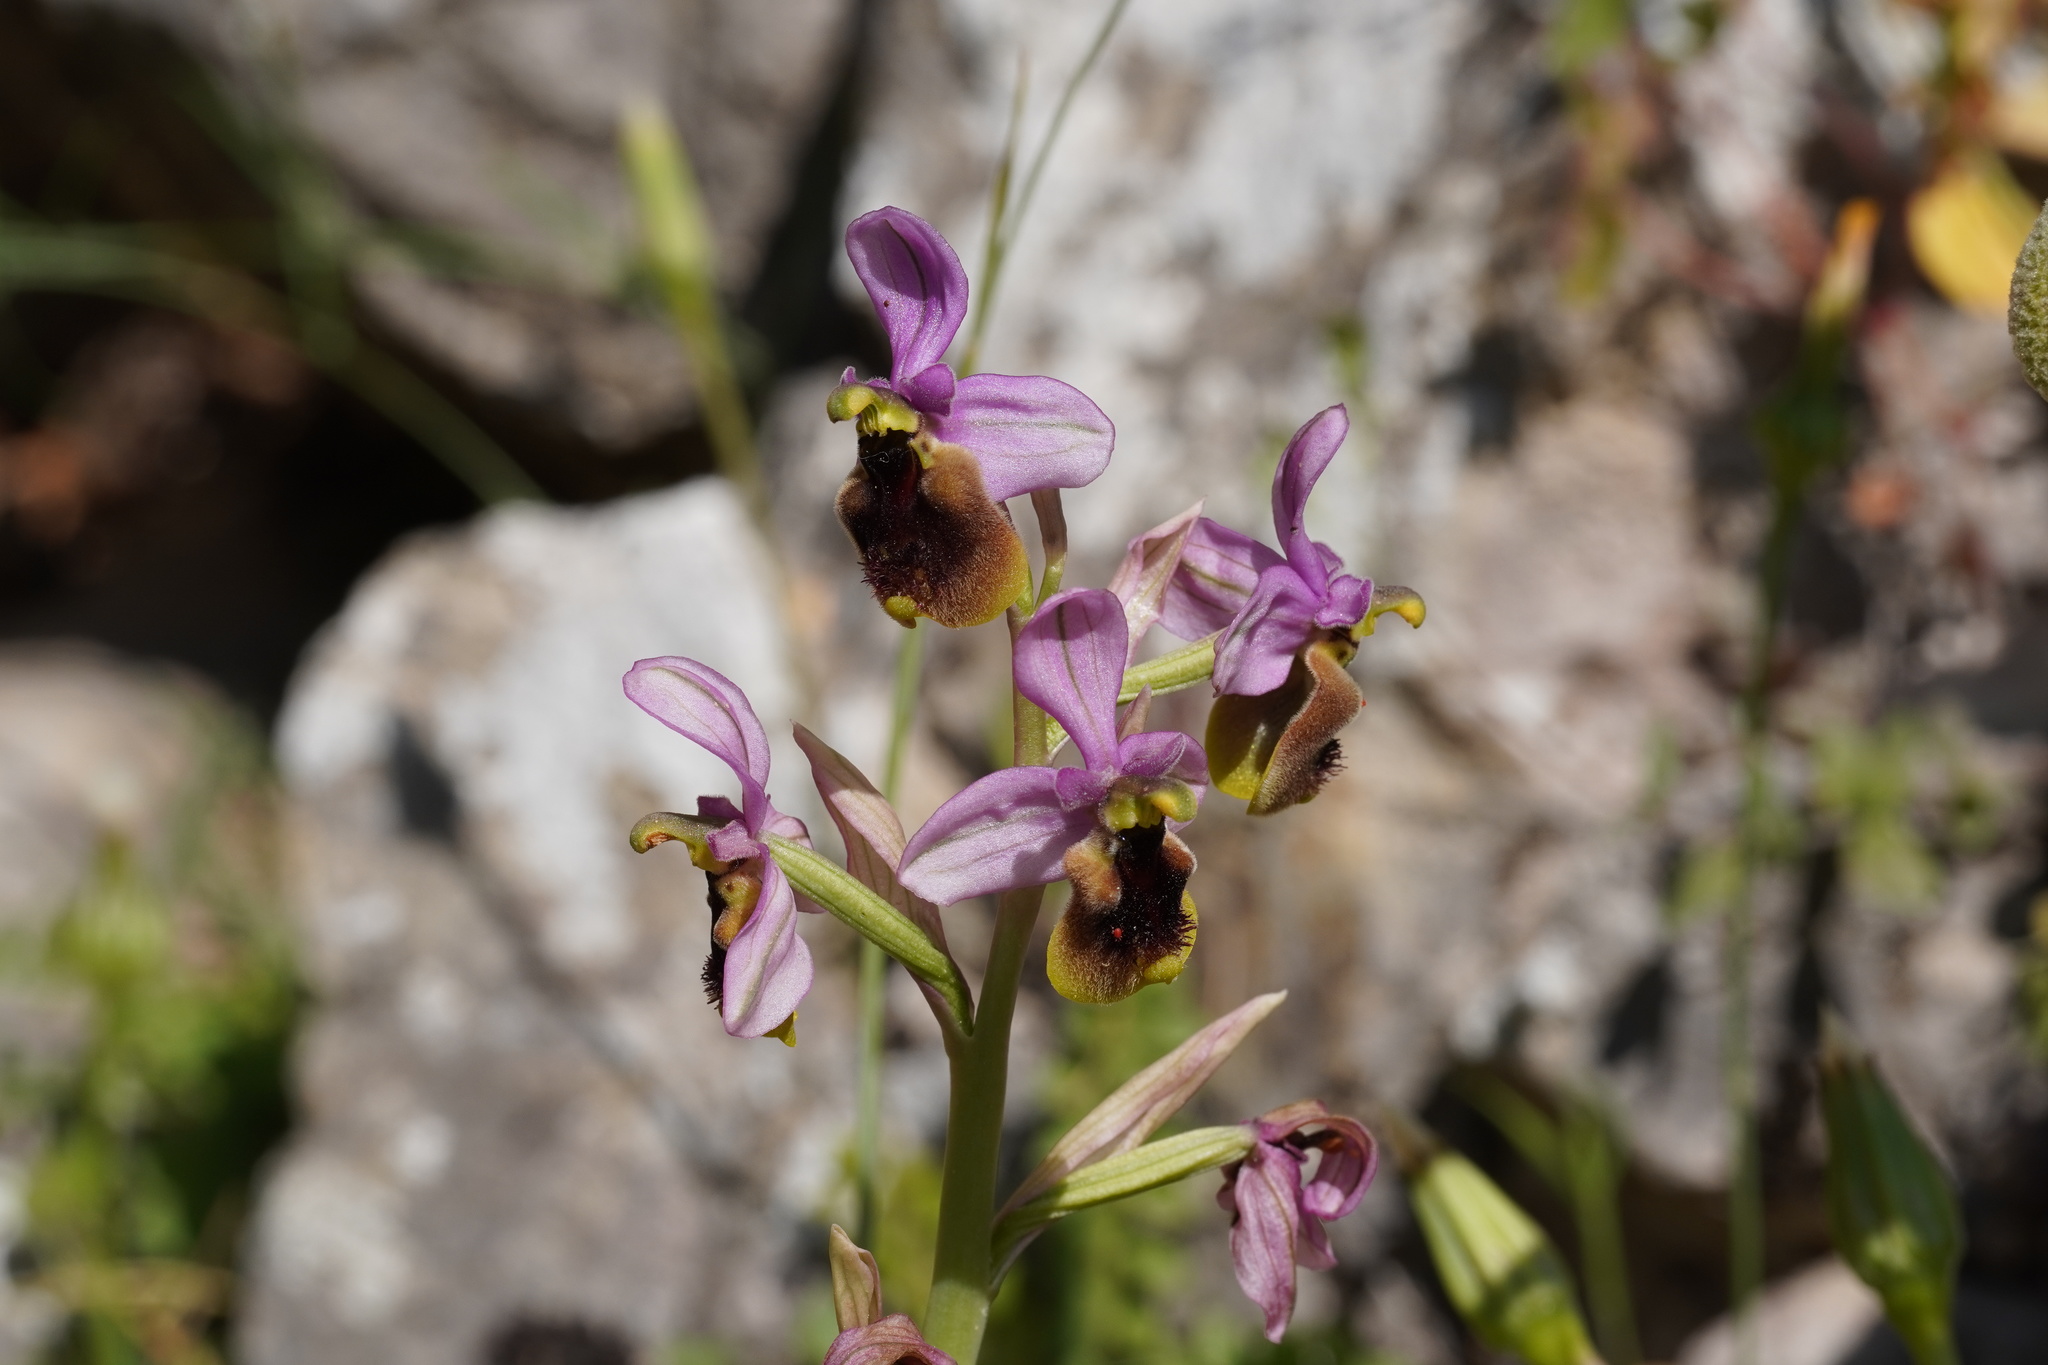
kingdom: Plantae
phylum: Tracheophyta
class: Liliopsida
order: Asparagales
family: Orchidaceae
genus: Ophrys
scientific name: Ophrys tenthredinifera
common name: Sawfly orchid
